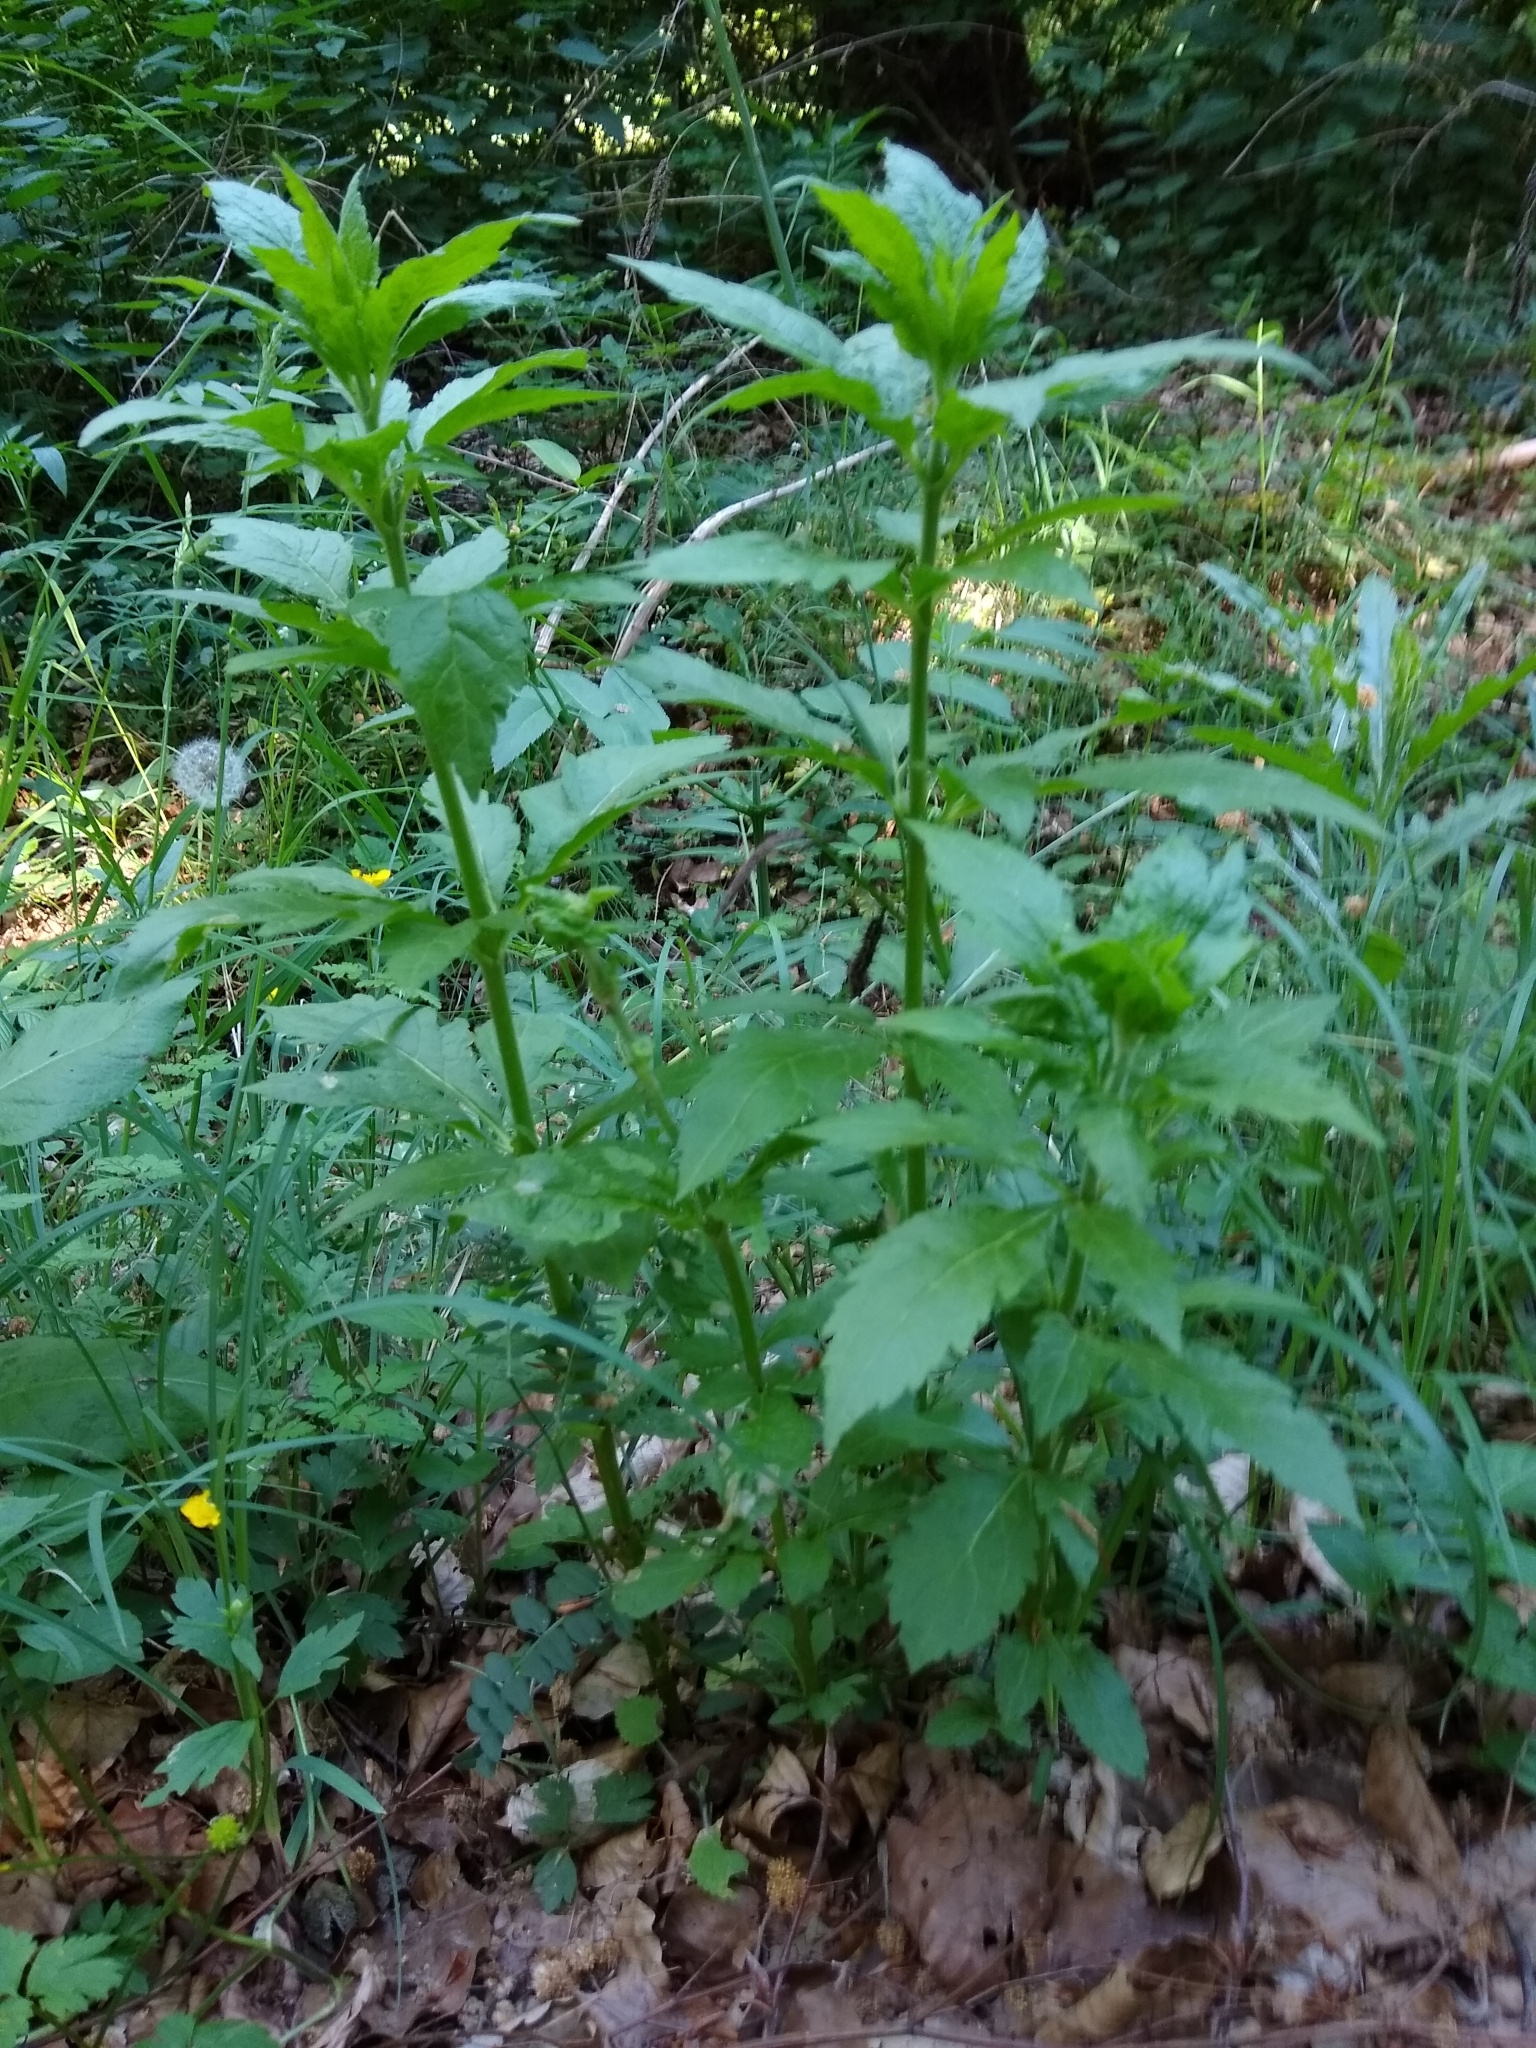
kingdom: Plantae
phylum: Tracheophyta
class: Magnoliopsida
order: Asterales
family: Asteraceae
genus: Eupatorium
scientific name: Eupatorium cannabinum
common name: Hemp-agrimony
